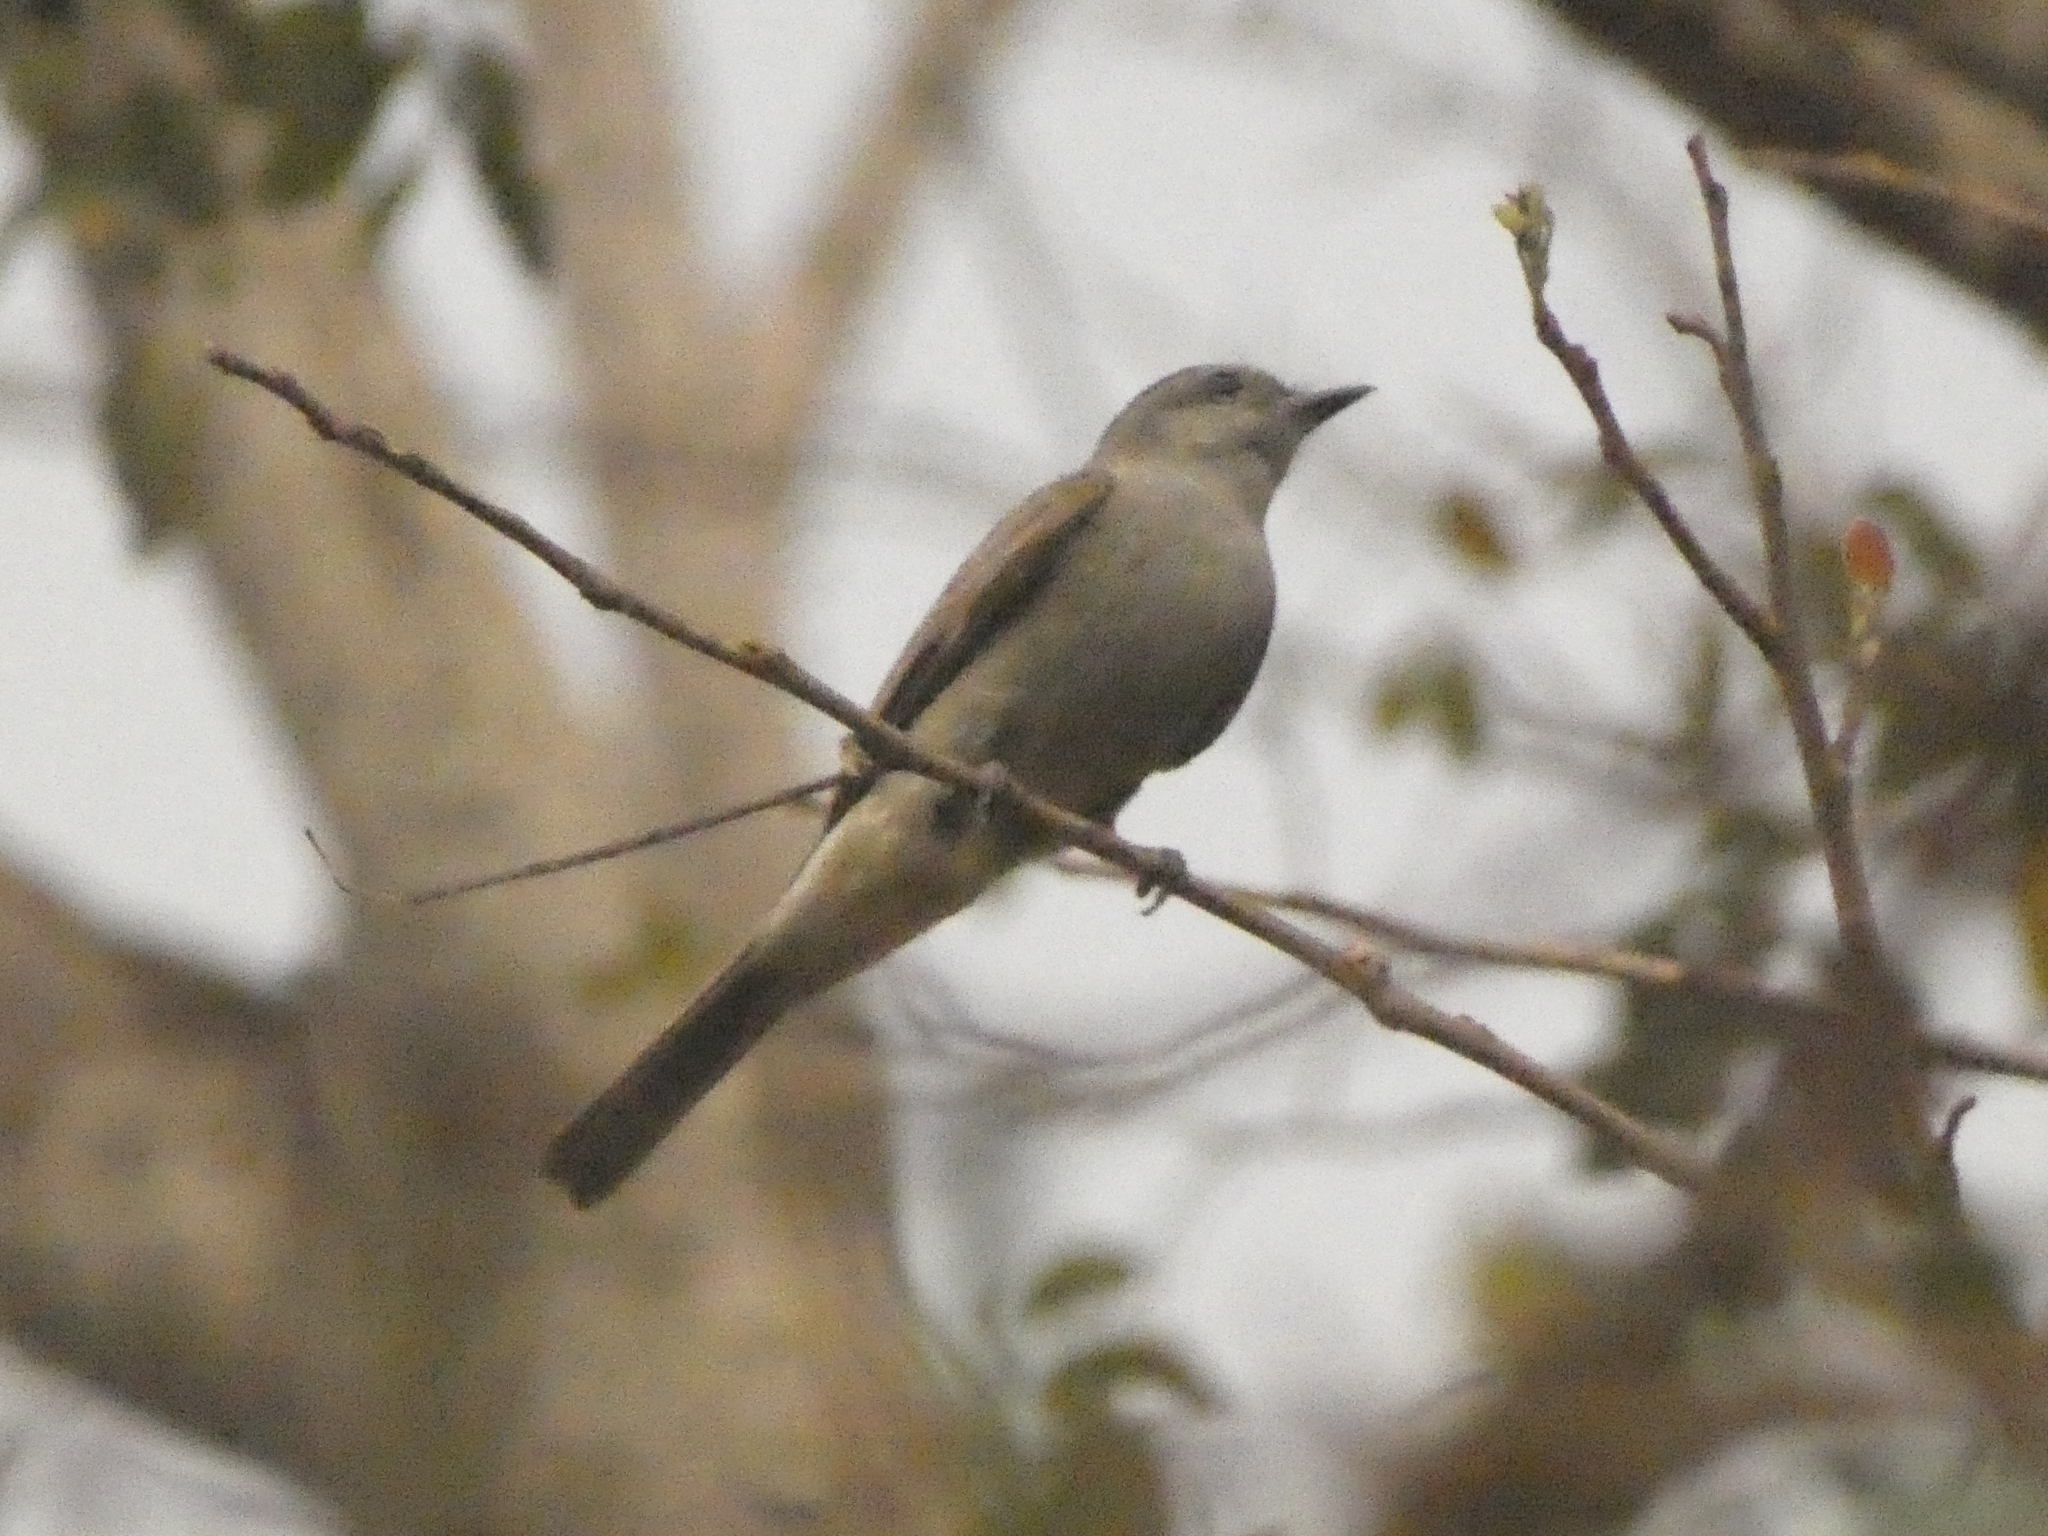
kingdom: Animalia
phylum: Chordata
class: Aves
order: Passeriformes
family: Tyrannidae
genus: Empidonomus
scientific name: Empidonomus aurantioatrocristatus
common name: Crowned slaty flycatcher
